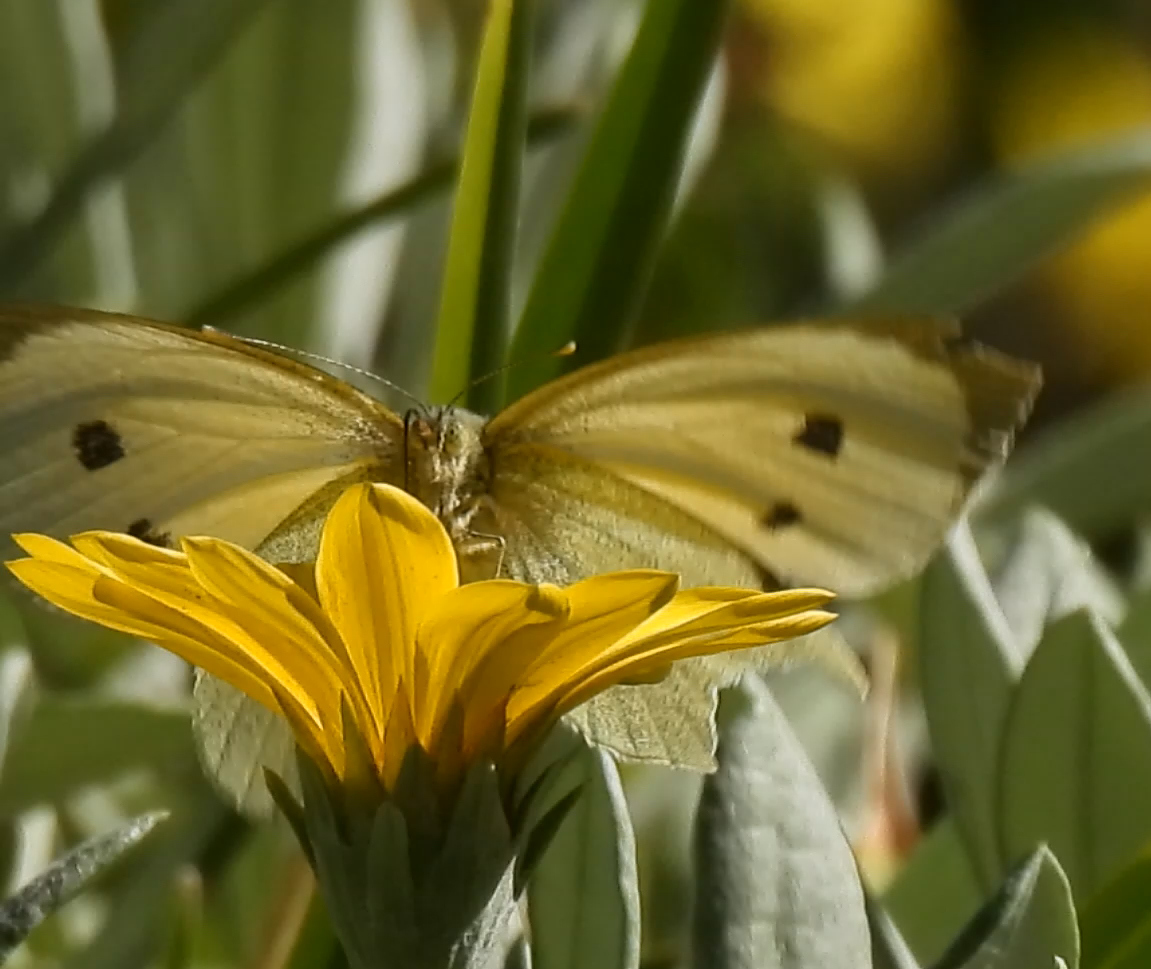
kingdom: Animalia
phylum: Arthropoda
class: Insecta
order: Lepidoptera
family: Pieridae
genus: Pieris
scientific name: Pieris brassicae
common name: Large white
